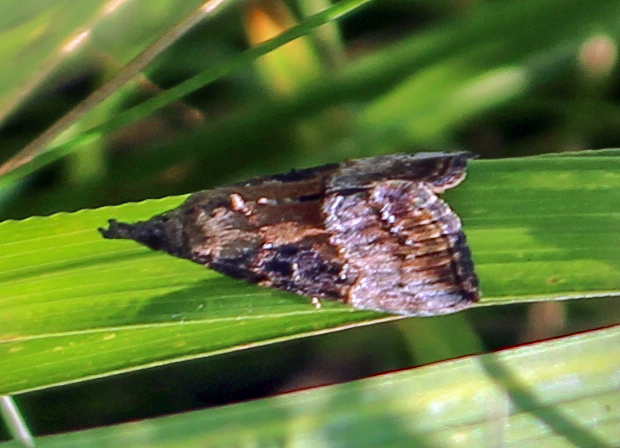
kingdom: Animalia
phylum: Arthropoda
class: Insecta
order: Lepidoptera
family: Erebidae
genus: Hypena
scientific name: Hypena scabra
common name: Green cloverworm
